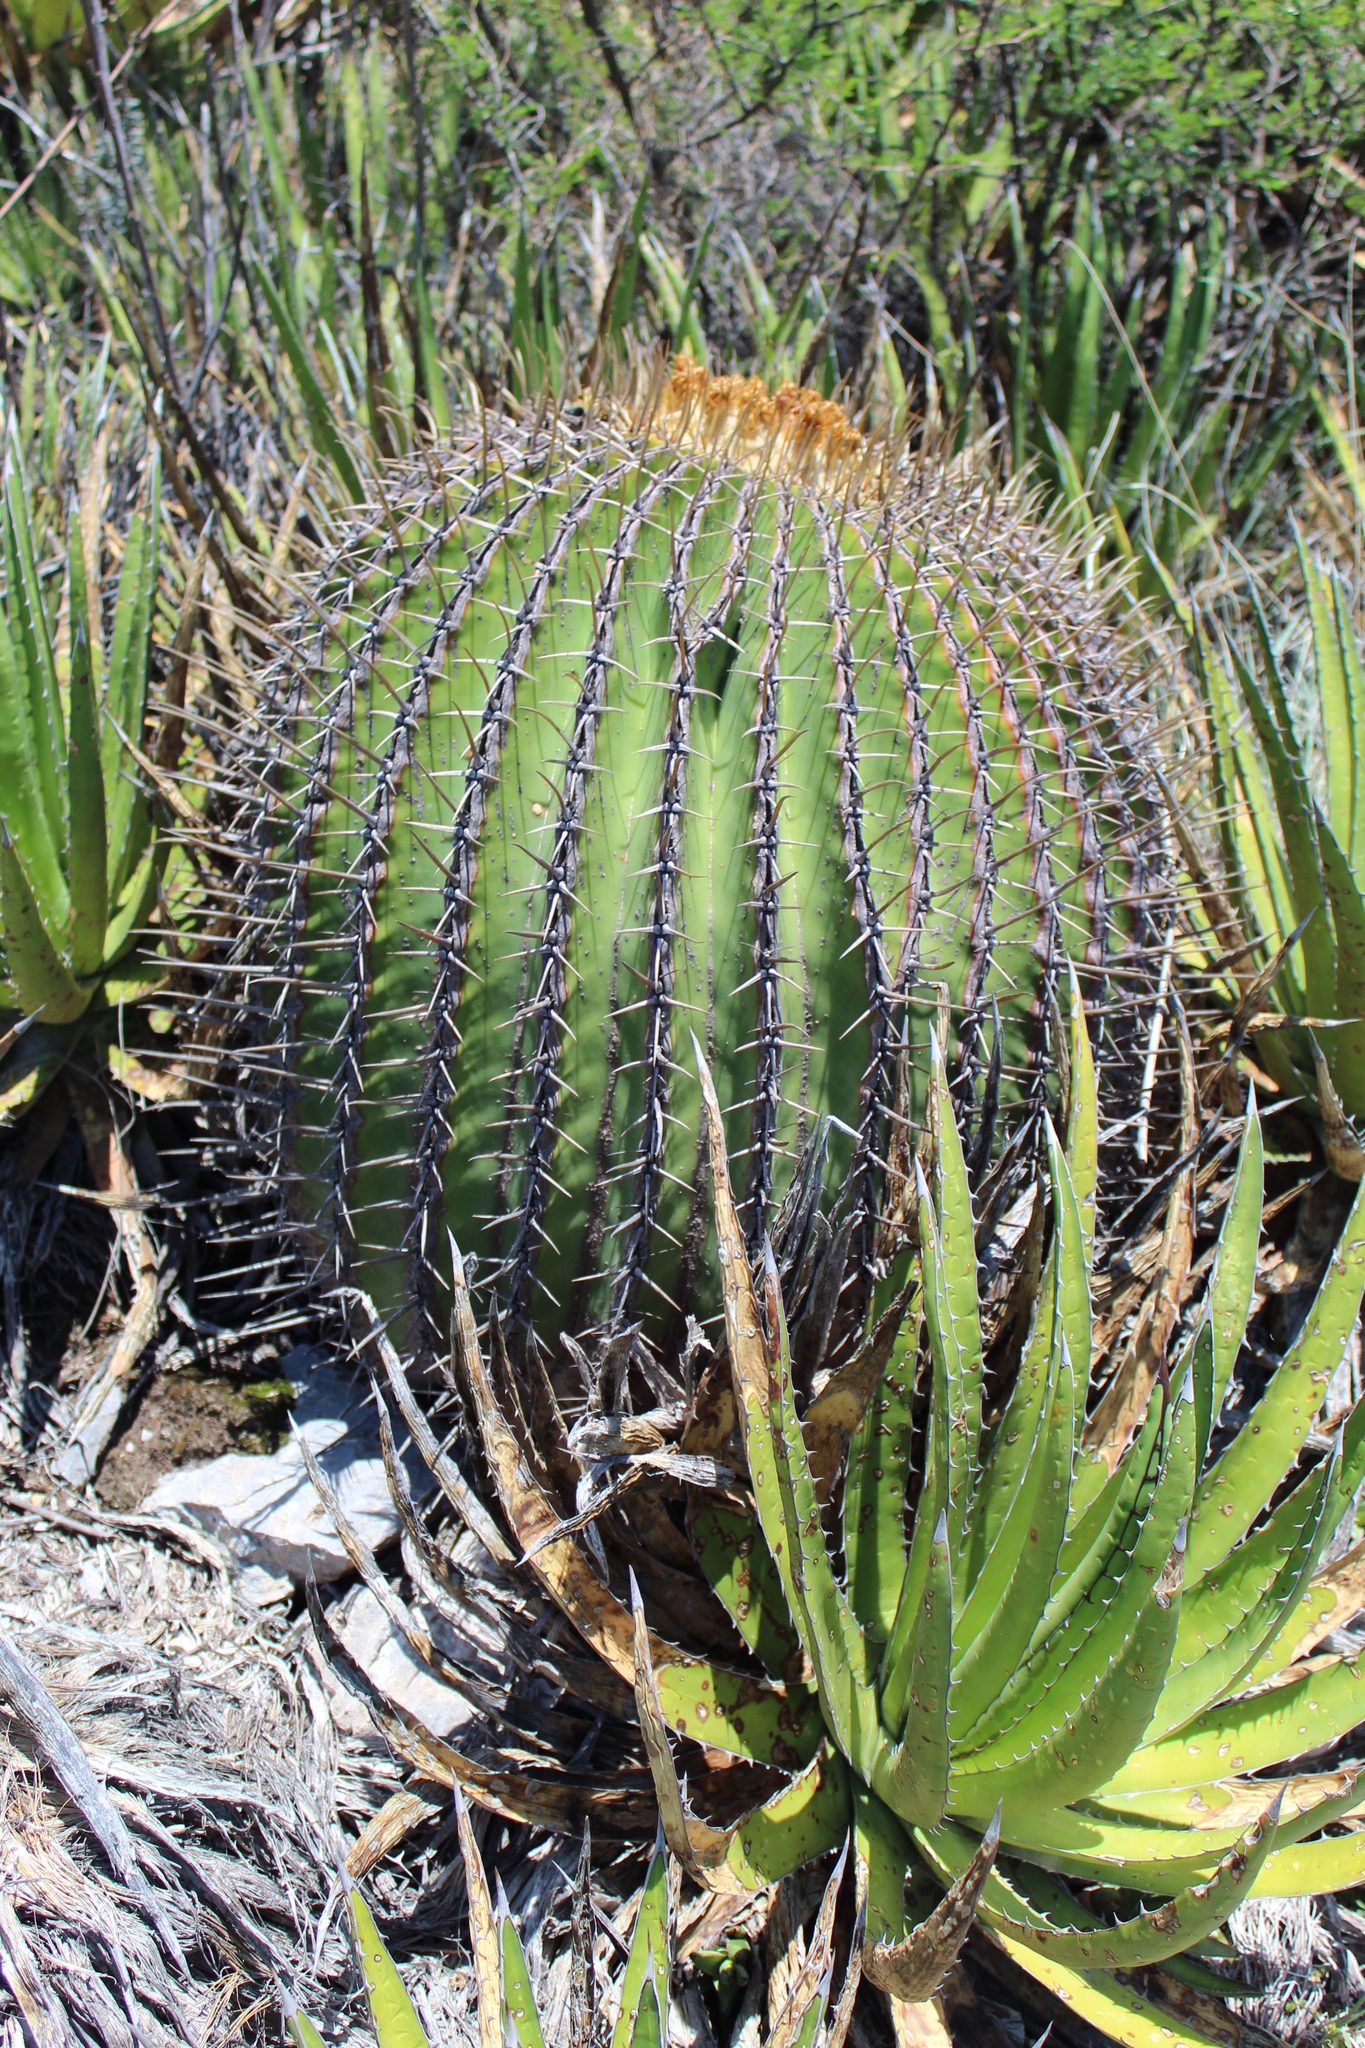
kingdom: Plantae
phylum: Tracheophyta
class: Magnoliopsida
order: Caryophyllales
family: Cactaceae
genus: Echinocactus
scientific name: Echinocactus platyacanthus
